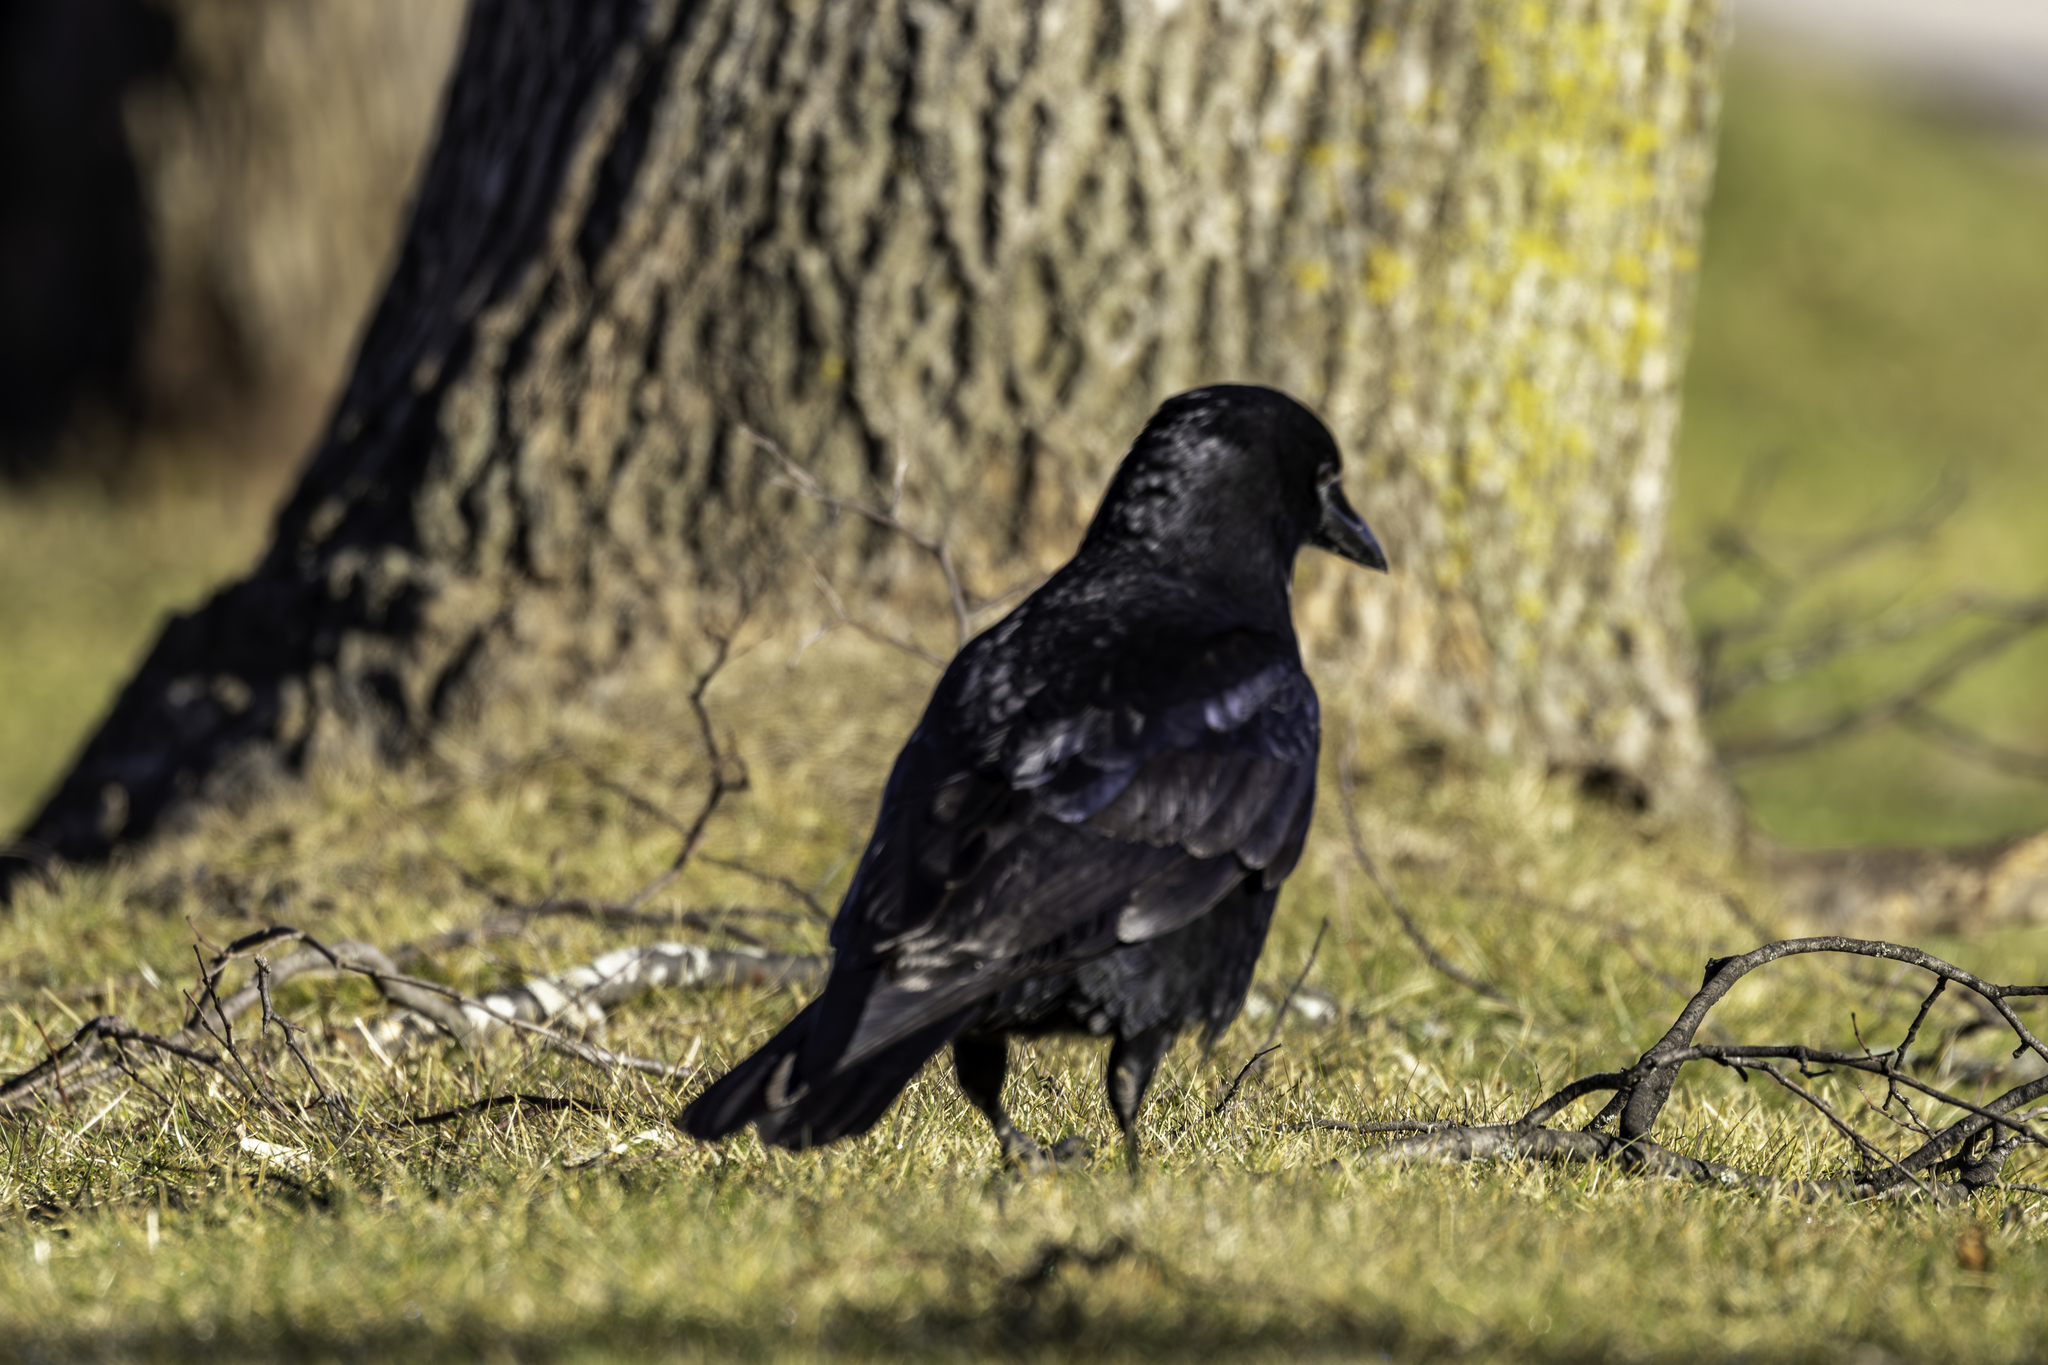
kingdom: Animalia
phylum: Chordata
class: Aves
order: Passeriformes
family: Corvidae
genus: Corvus
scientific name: Corvus brachyrhynchos
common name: American crow
